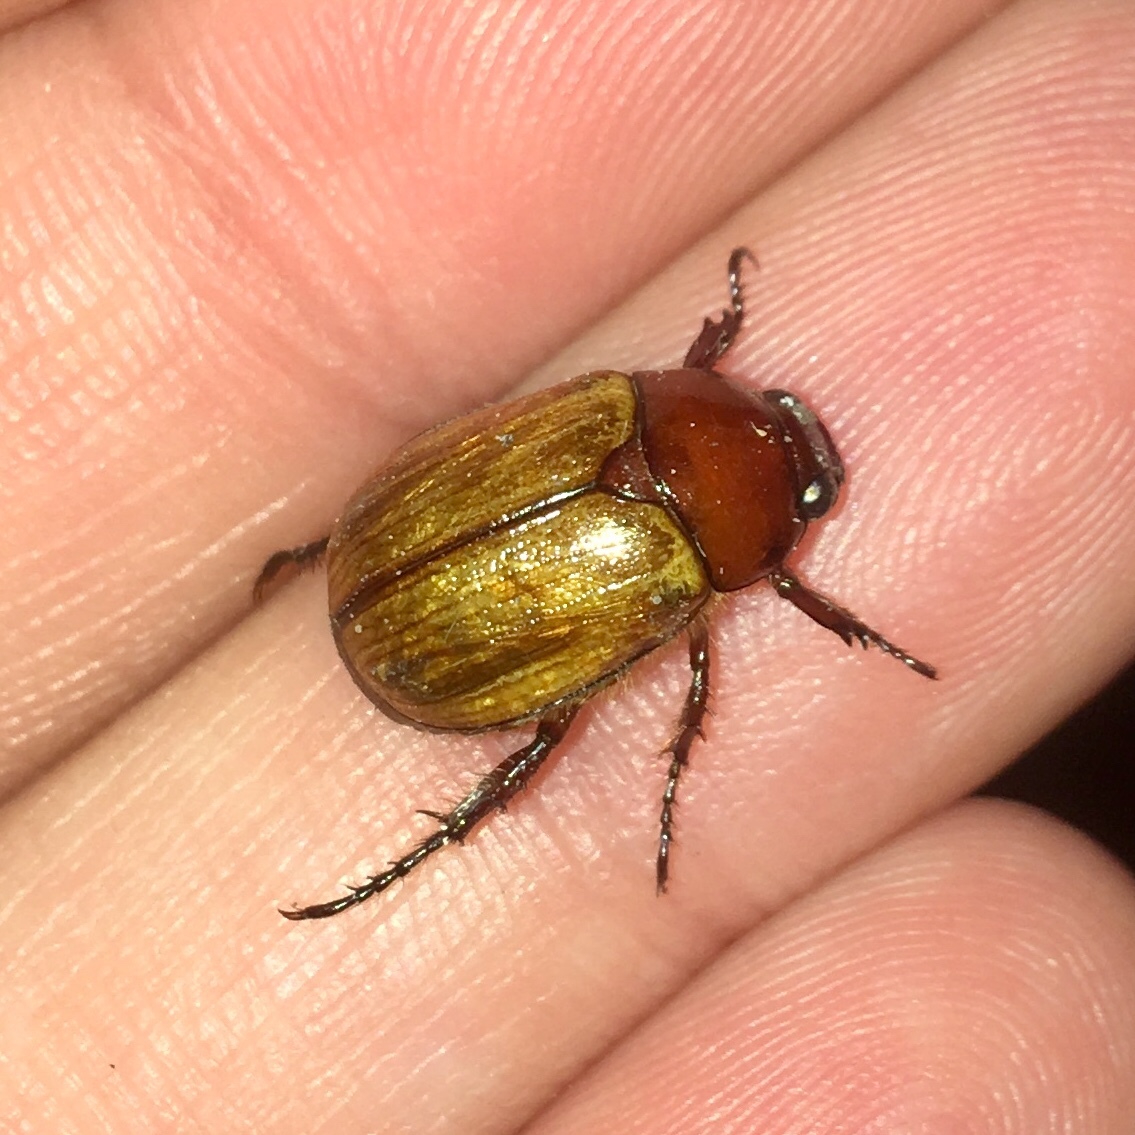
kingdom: Animalia
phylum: Arthropoda
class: Insecta
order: Coleoptera
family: Scarabaeidae
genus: Paranomala
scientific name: Paranomala flavipennis
